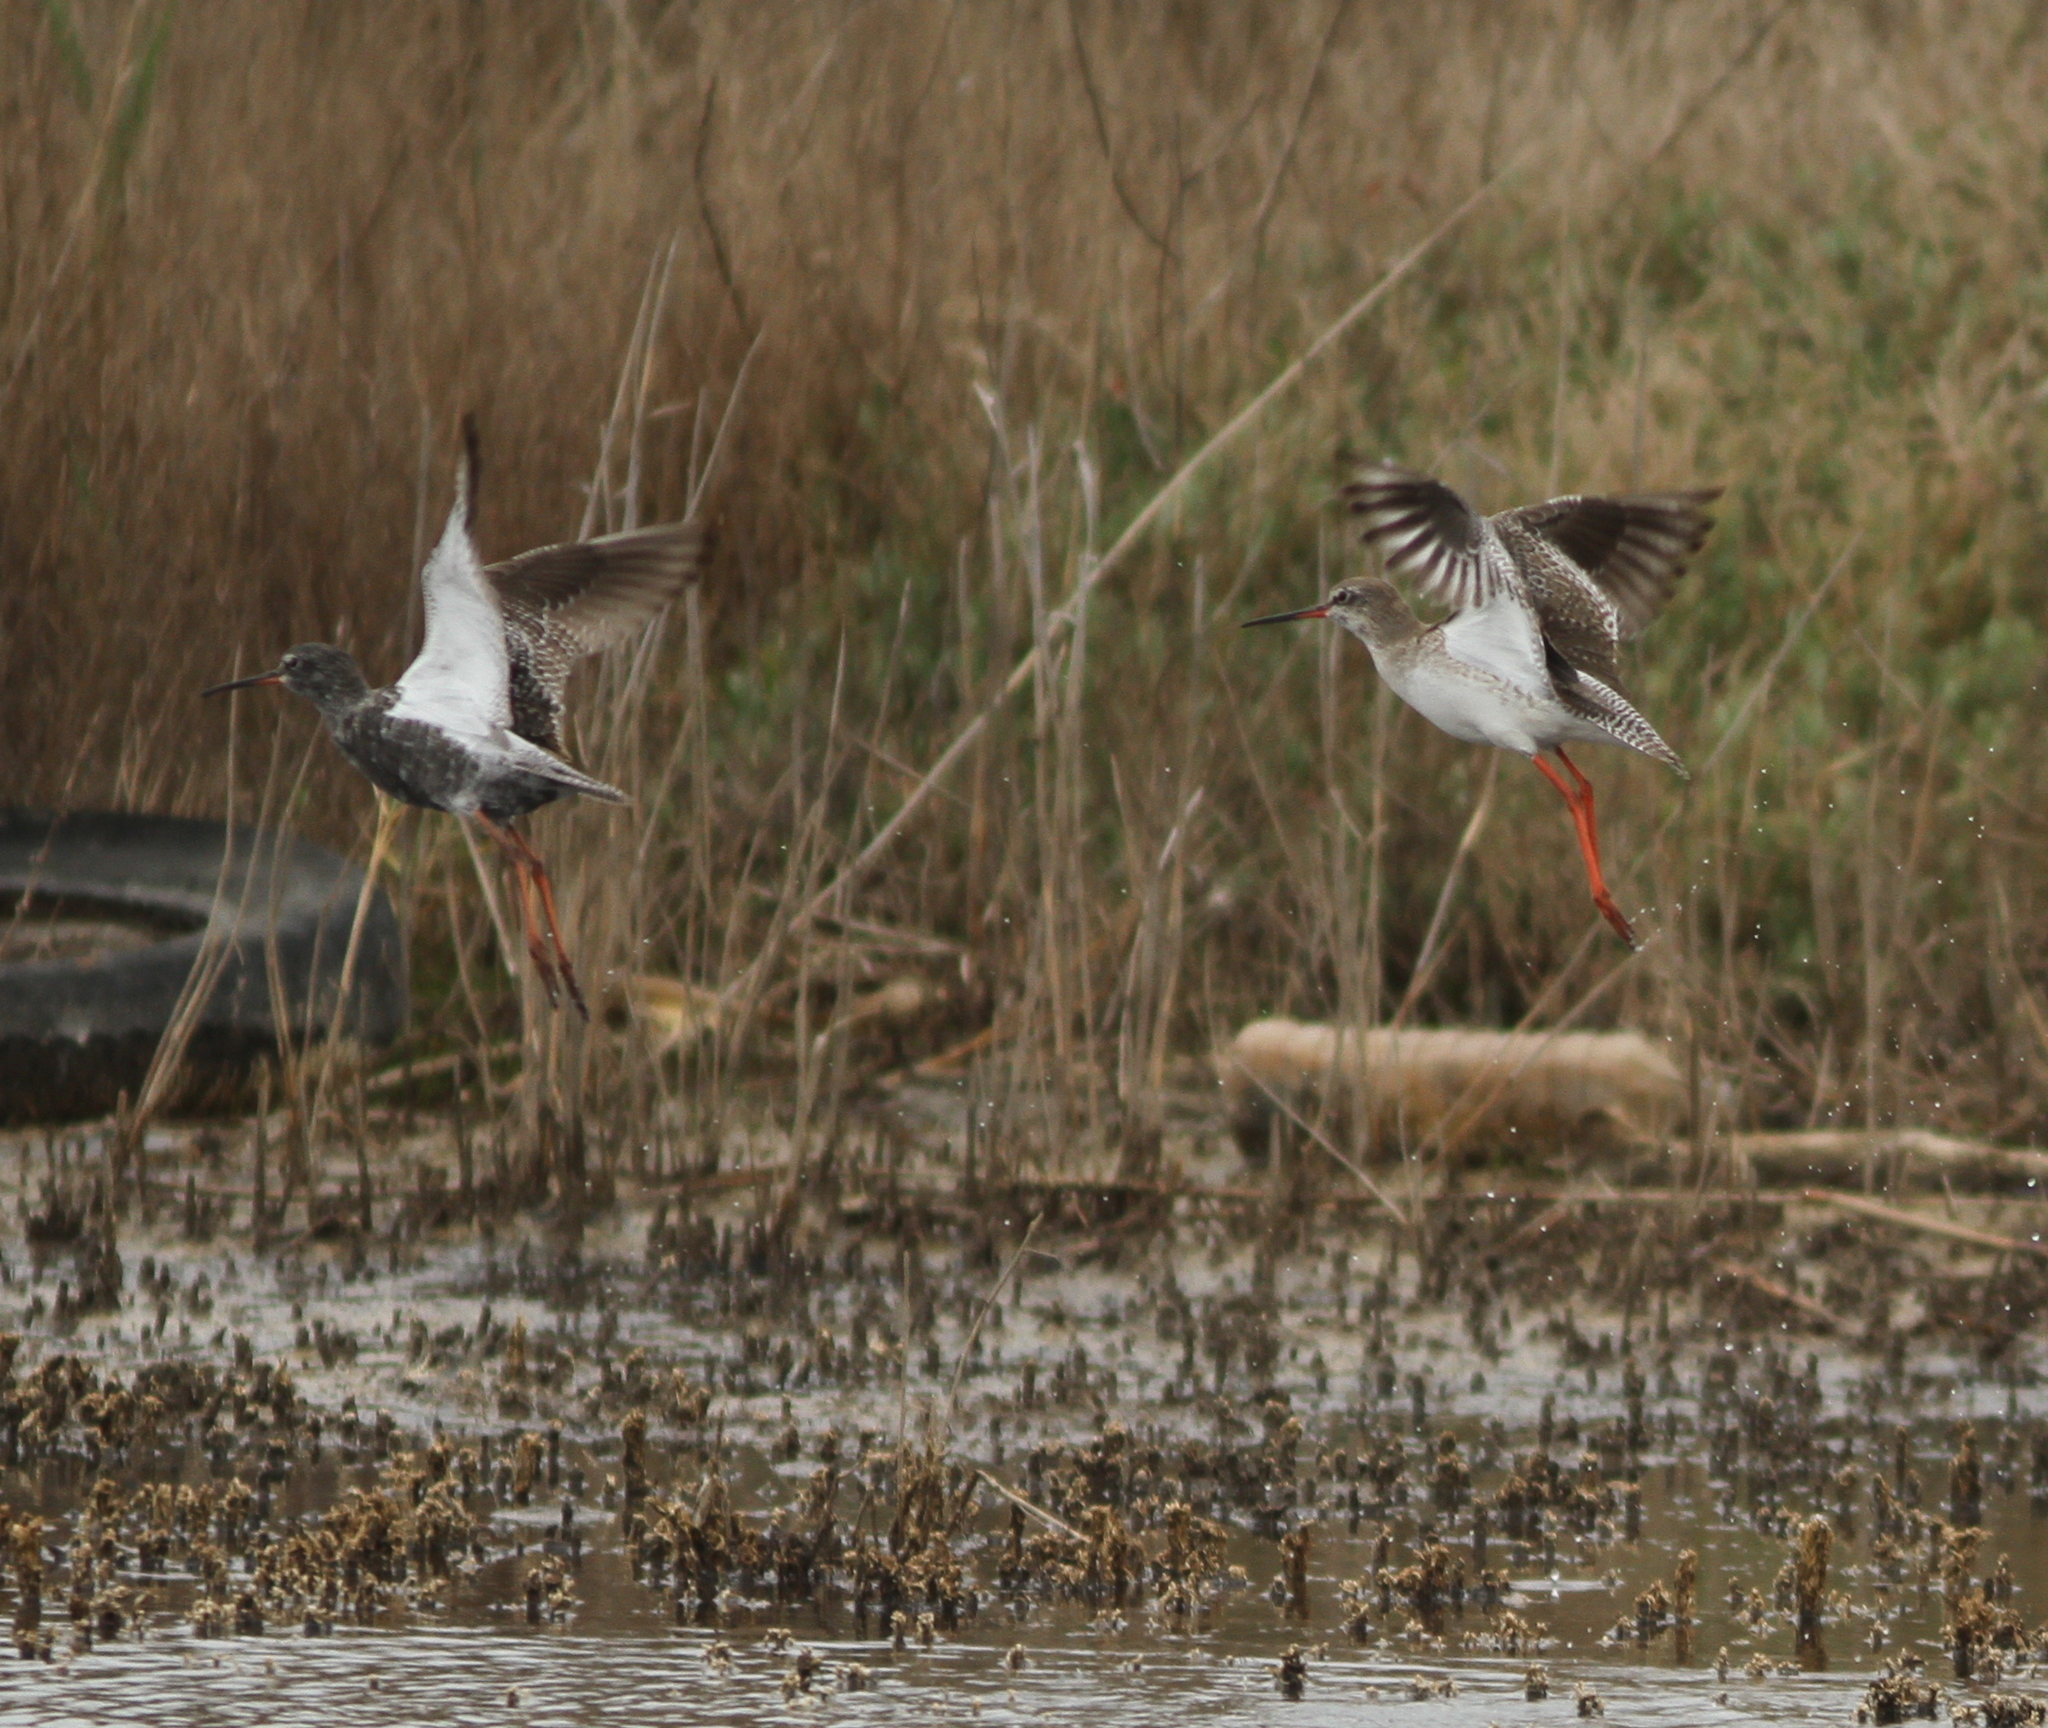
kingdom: Animalia
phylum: Chordata
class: Aves
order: Charadriiformes
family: Scolopacidae
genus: Tringa
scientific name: Tringa erythropus
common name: Spotted redshank
